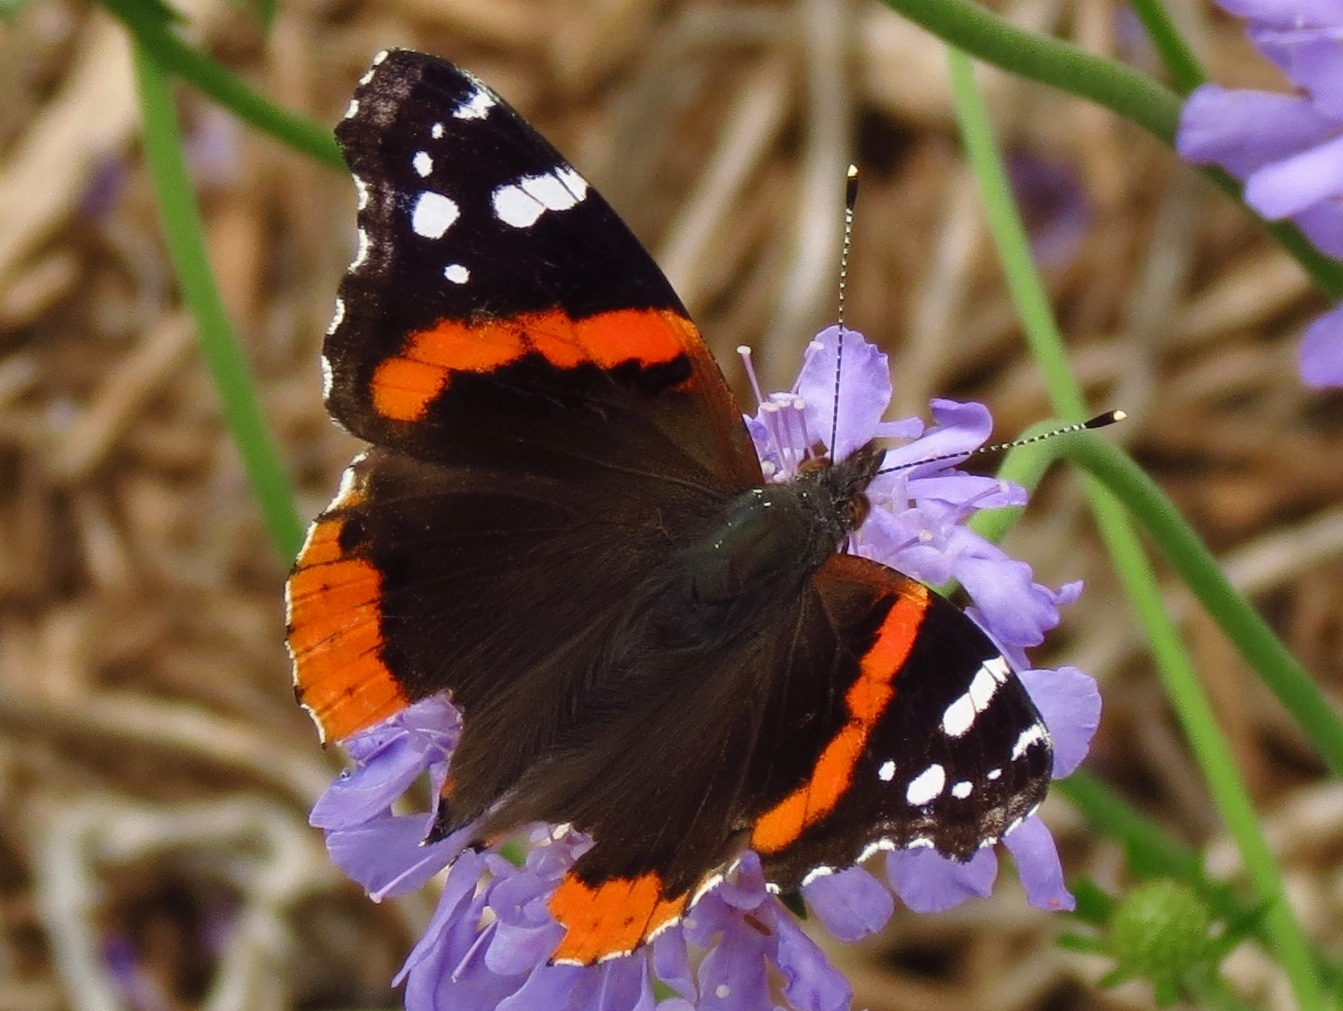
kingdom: Animalia
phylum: Arthropoda
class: Insecta
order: Lepidoptera
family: Nymphalidae
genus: Vanessa
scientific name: Vanessa atalanta
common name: Red admiral
